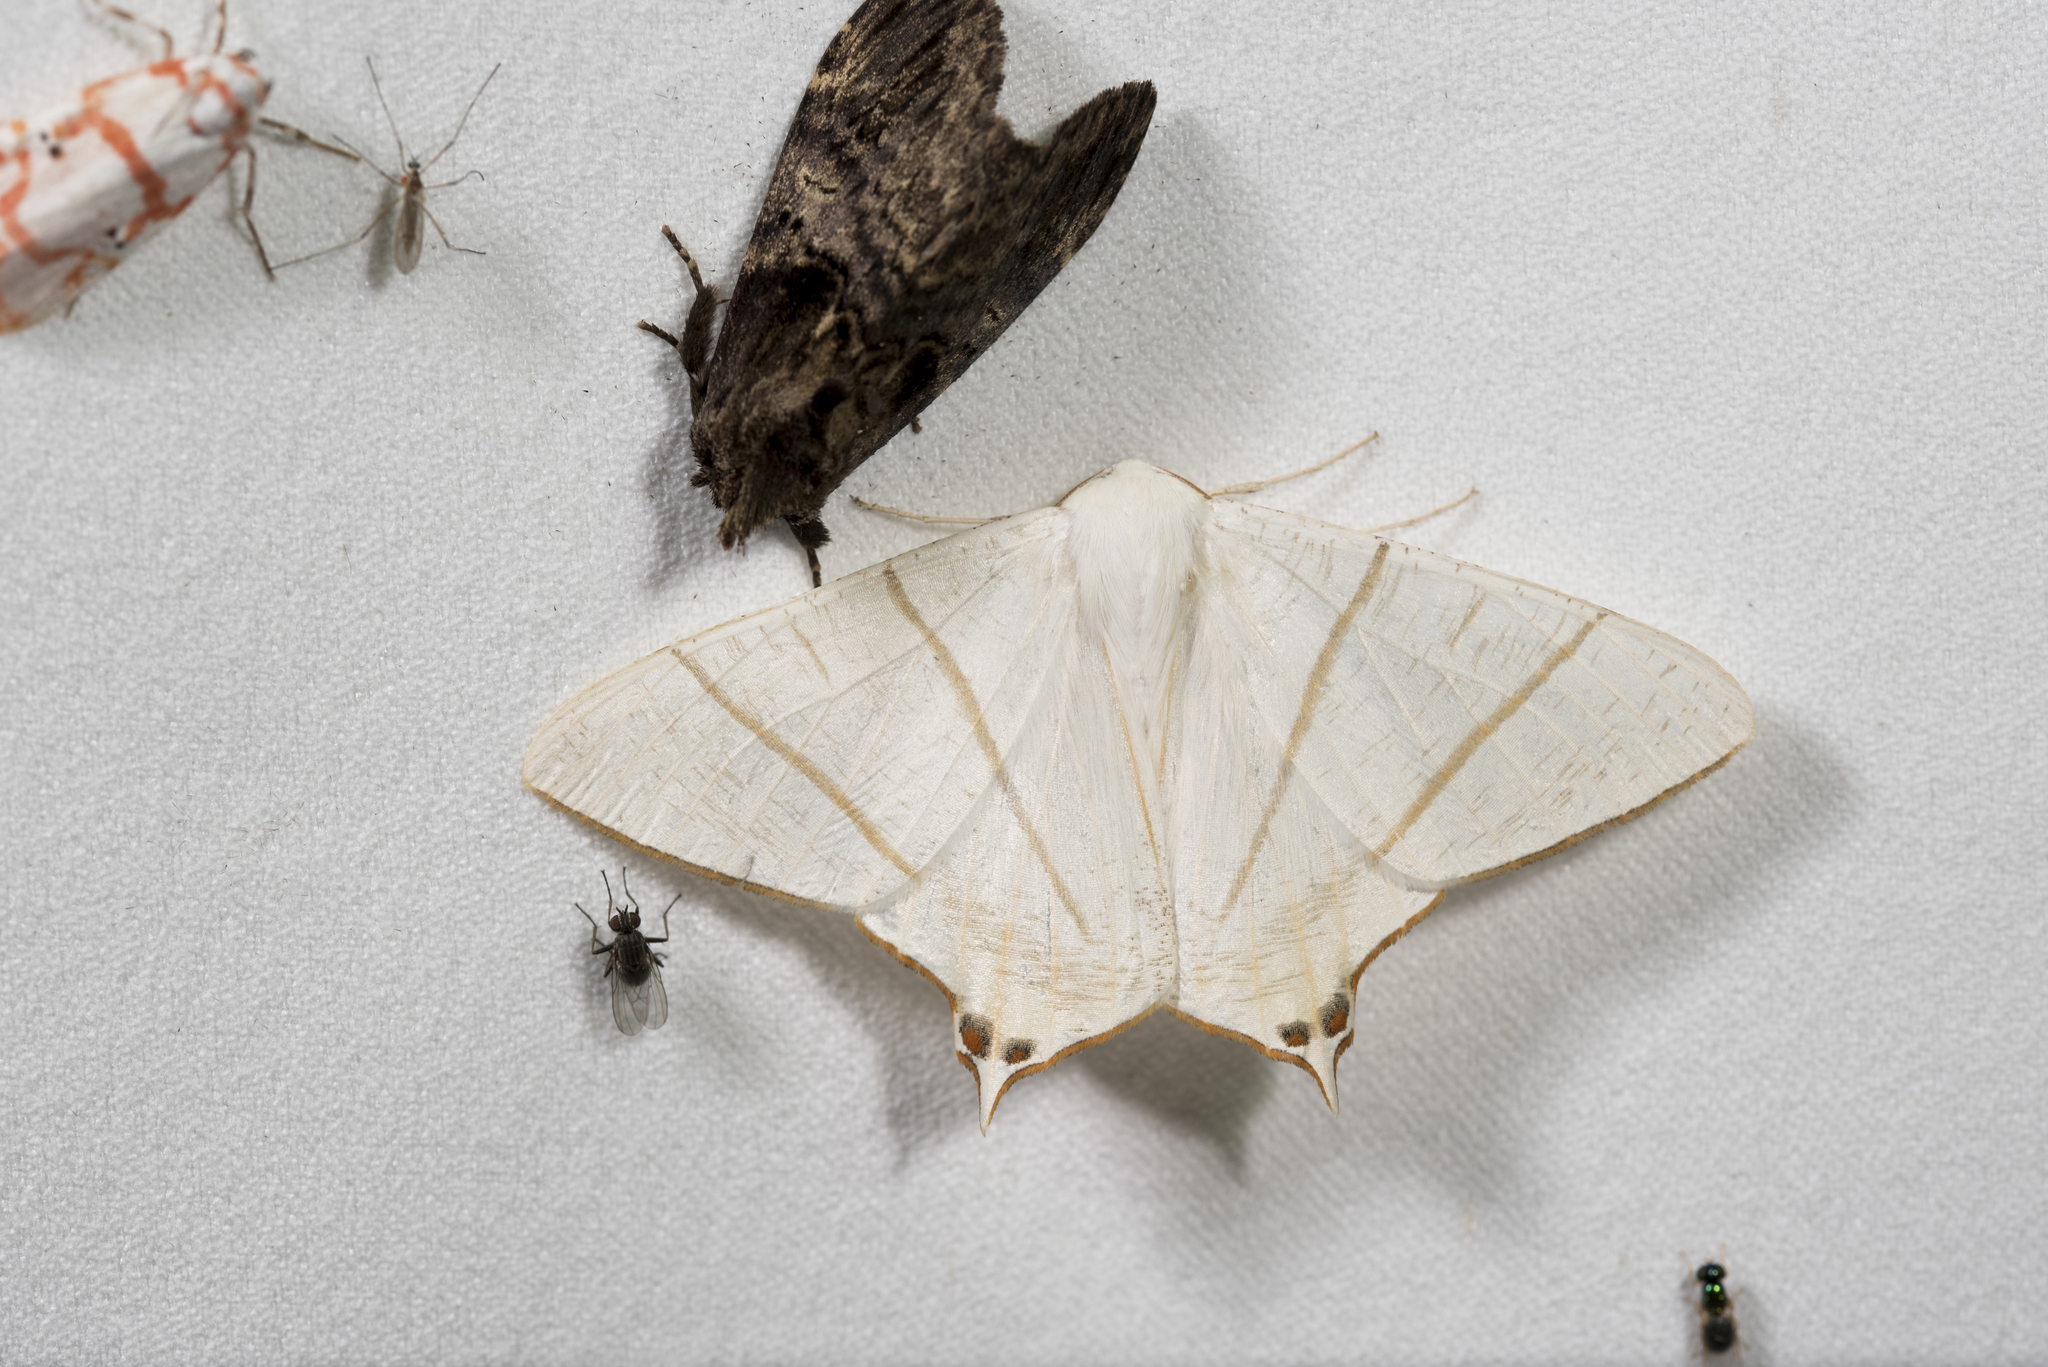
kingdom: Animalia
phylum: Arthropoda
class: Insecta
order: Lepidoptera
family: Geometridae
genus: Ourapteryx
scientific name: Ourapteryx yerburii
